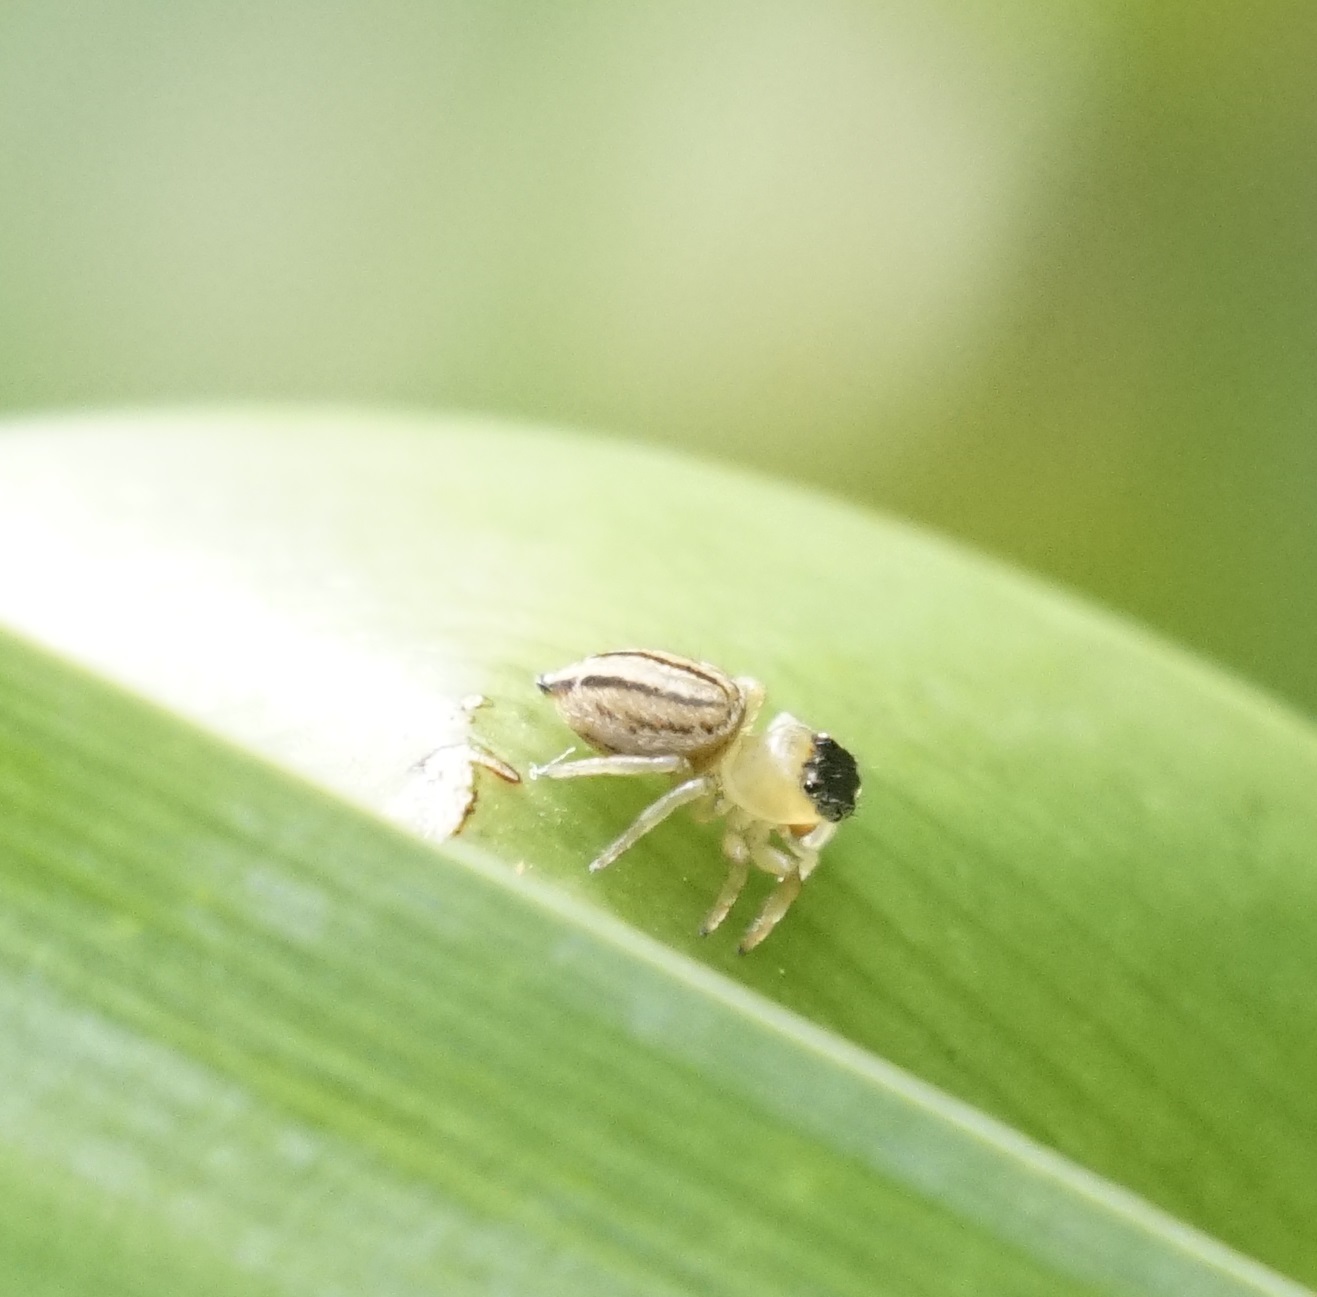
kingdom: Animalia
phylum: Arthropoda
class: Arachnida
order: Araneae
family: Salticidae
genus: Maratus
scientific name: Maratus scutulatus
